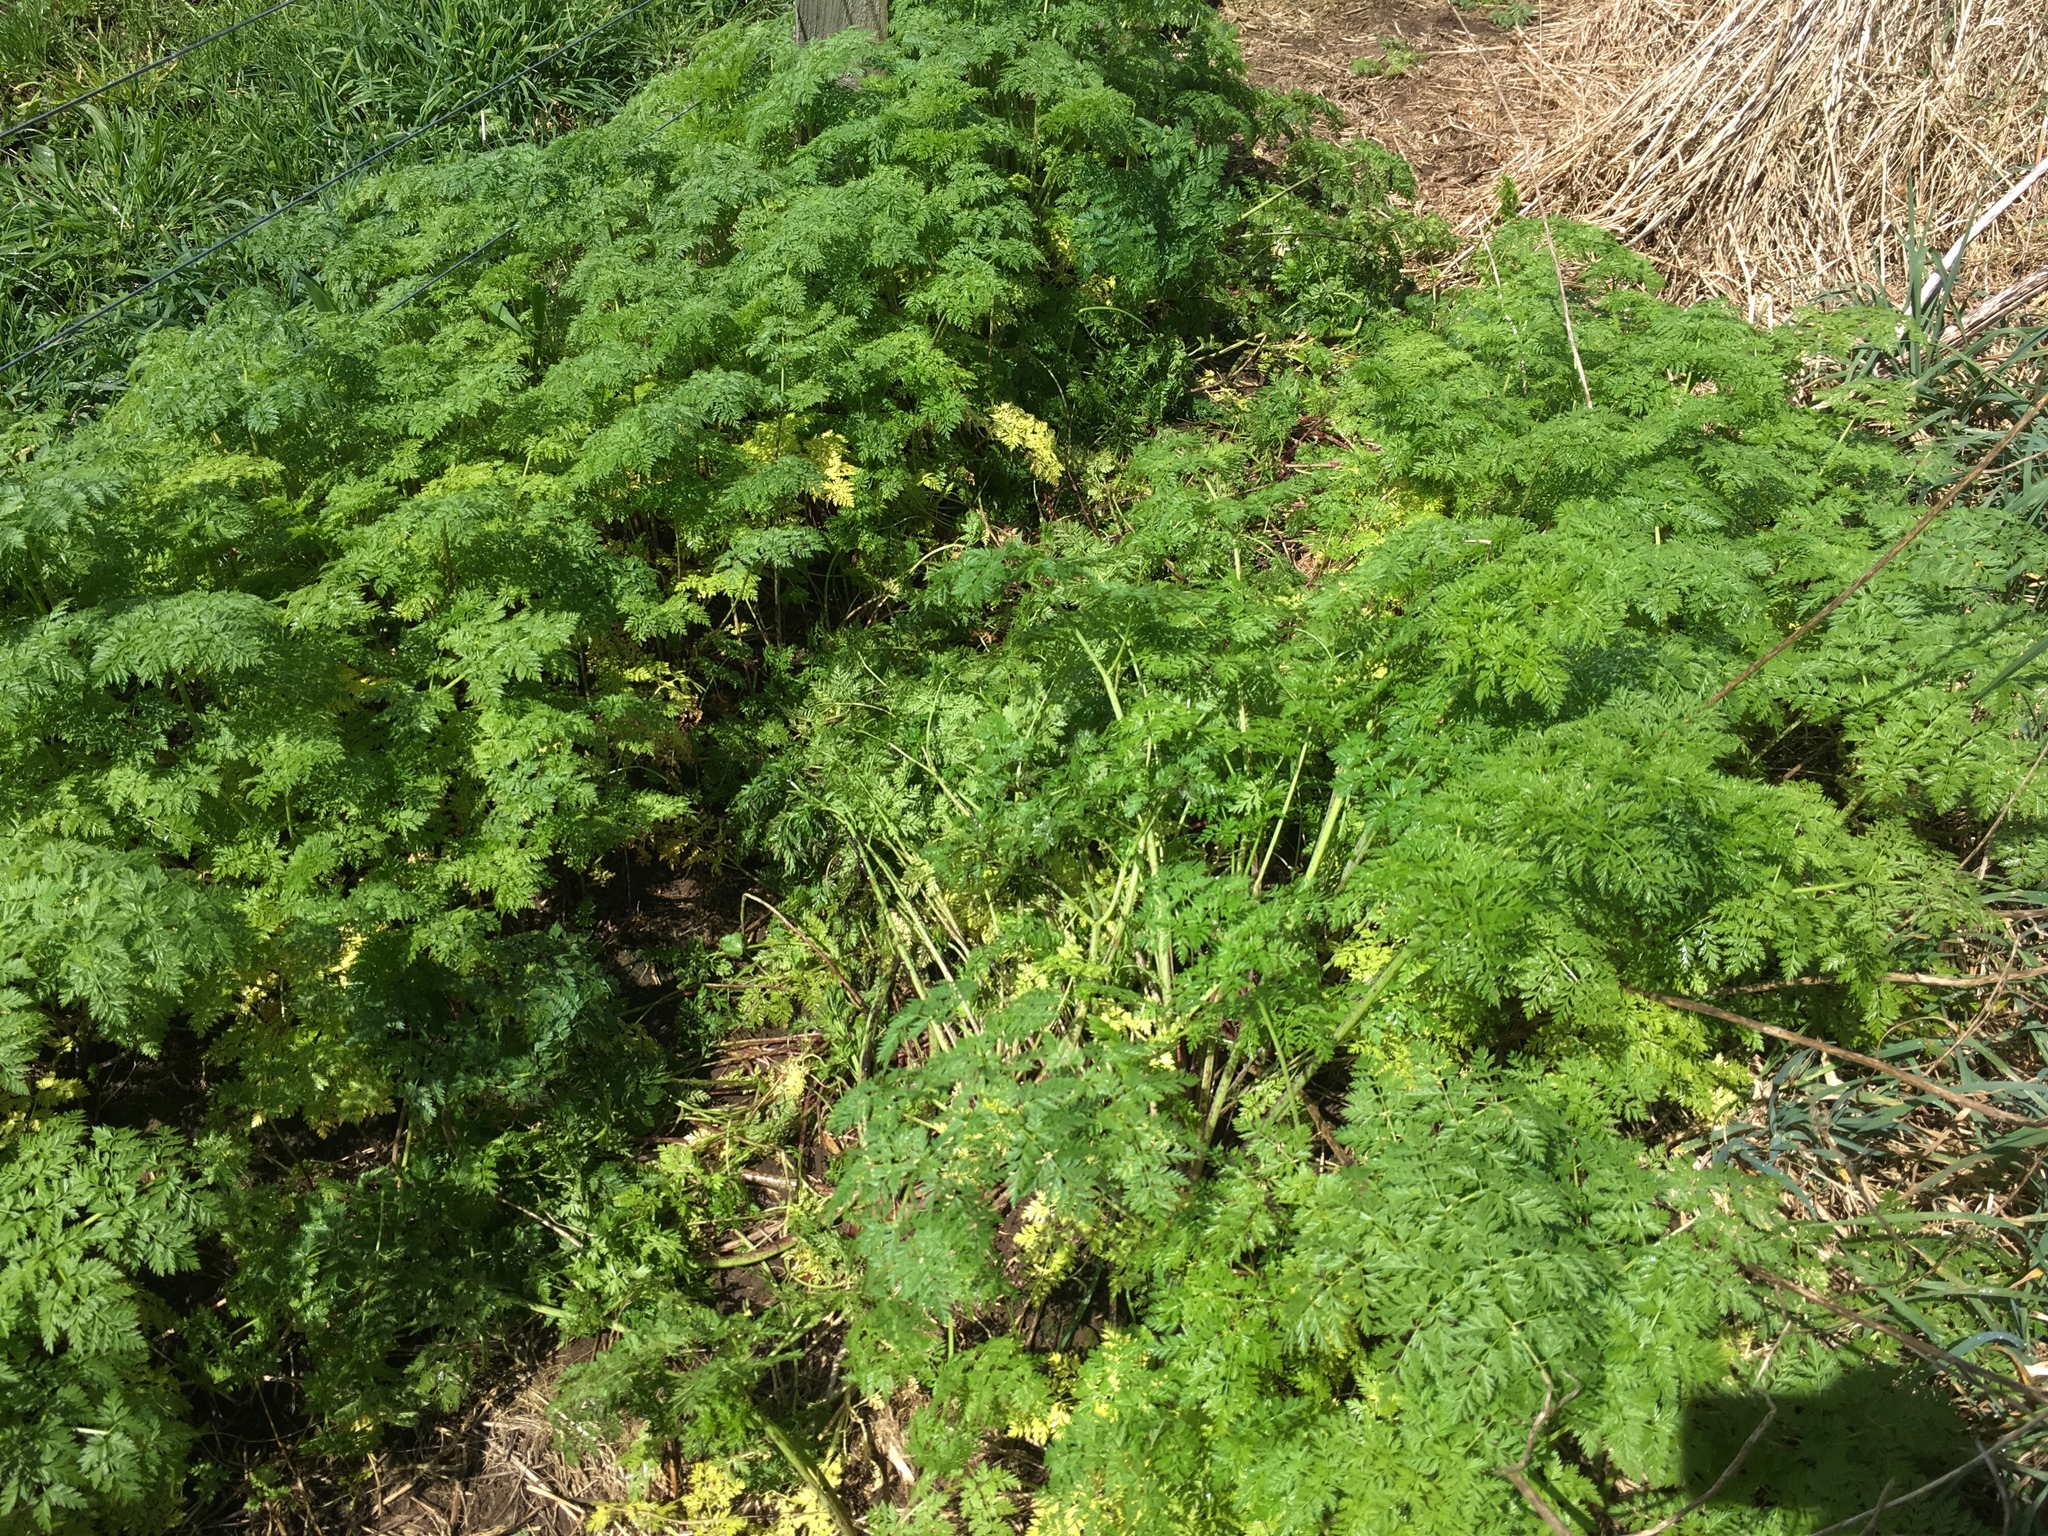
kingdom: Plantae
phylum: Tracheophyta
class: Magnoliopsida
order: Apiales
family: Apiaceae
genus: Conium
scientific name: Conium maculatum
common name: Hemlock
